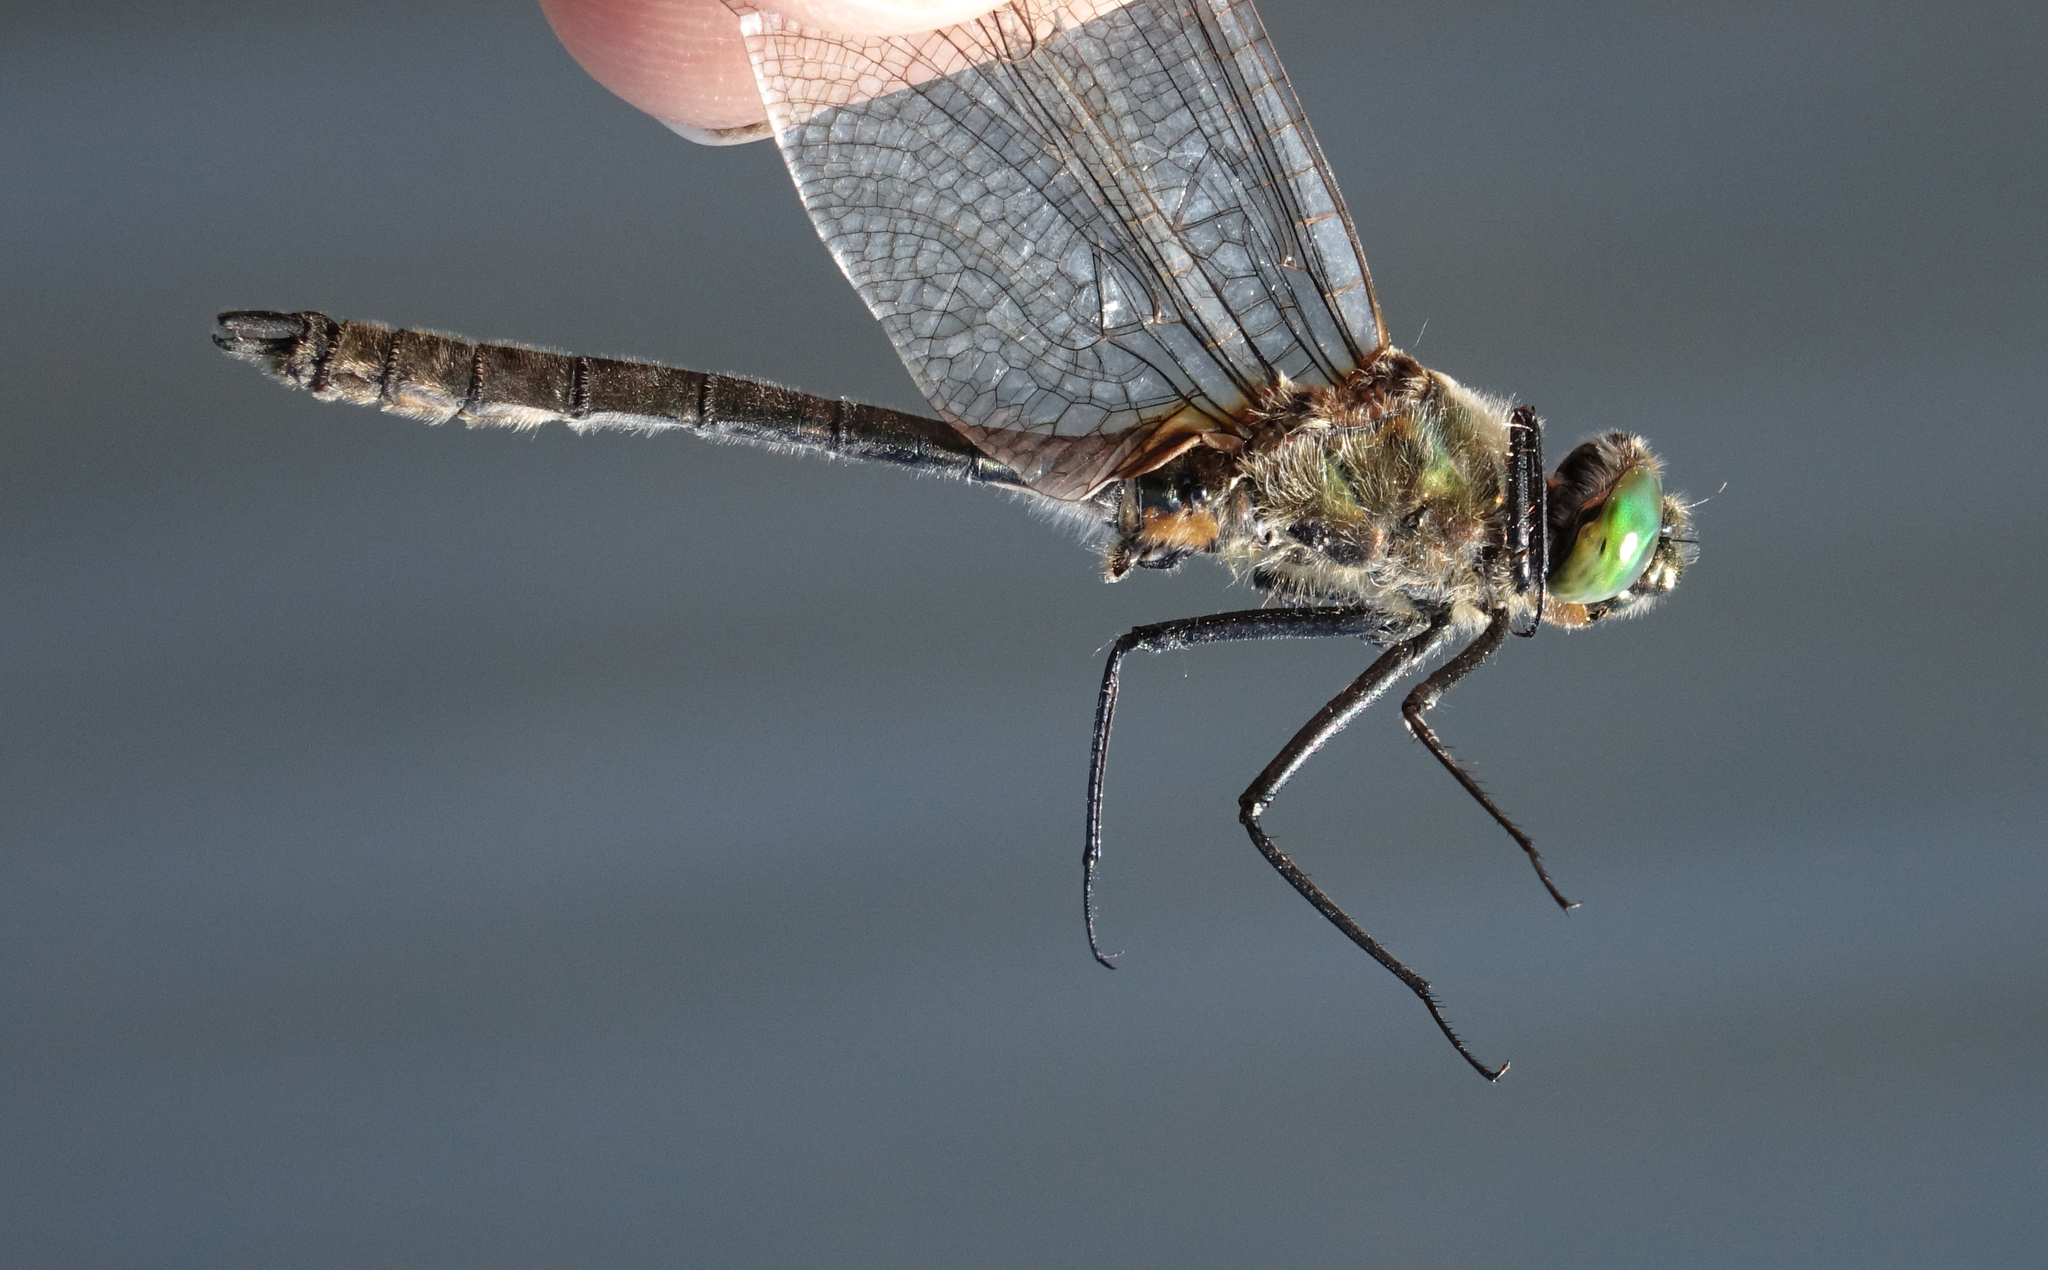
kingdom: Animalia
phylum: Arthropoda
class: Insecta
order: Odonata
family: Corduliidae
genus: Cordulia
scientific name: Cordulia aenea
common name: Downy emerald
